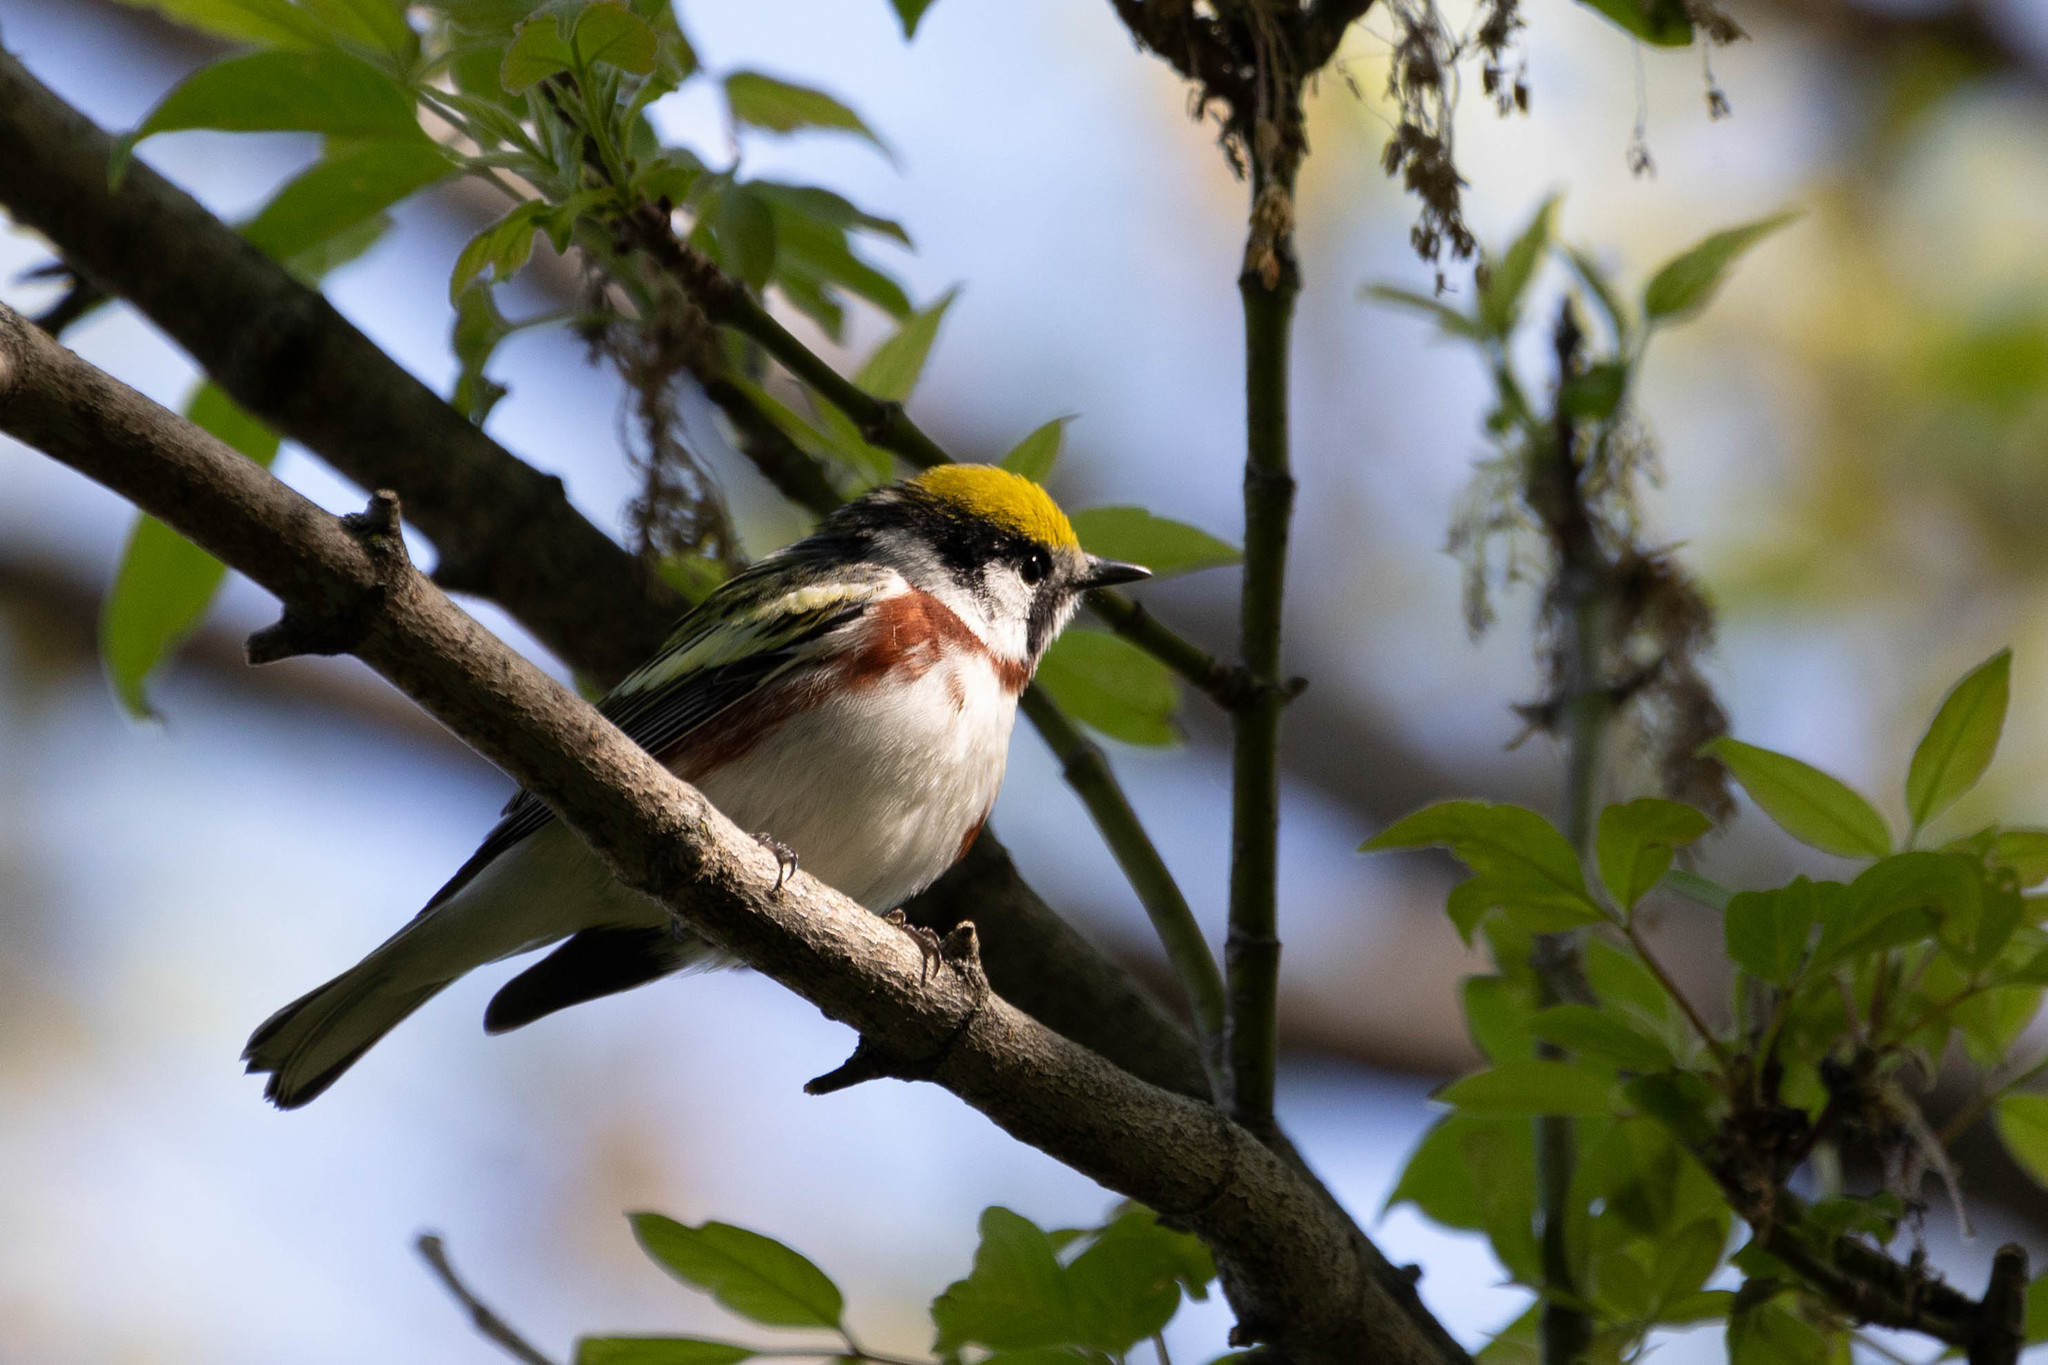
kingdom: Animalia
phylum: Chordata
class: Aves
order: Passeriformes
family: Parulidae
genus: Setophaga
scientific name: Setophaga pensylvanica
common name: Chestnut-sided warbler
